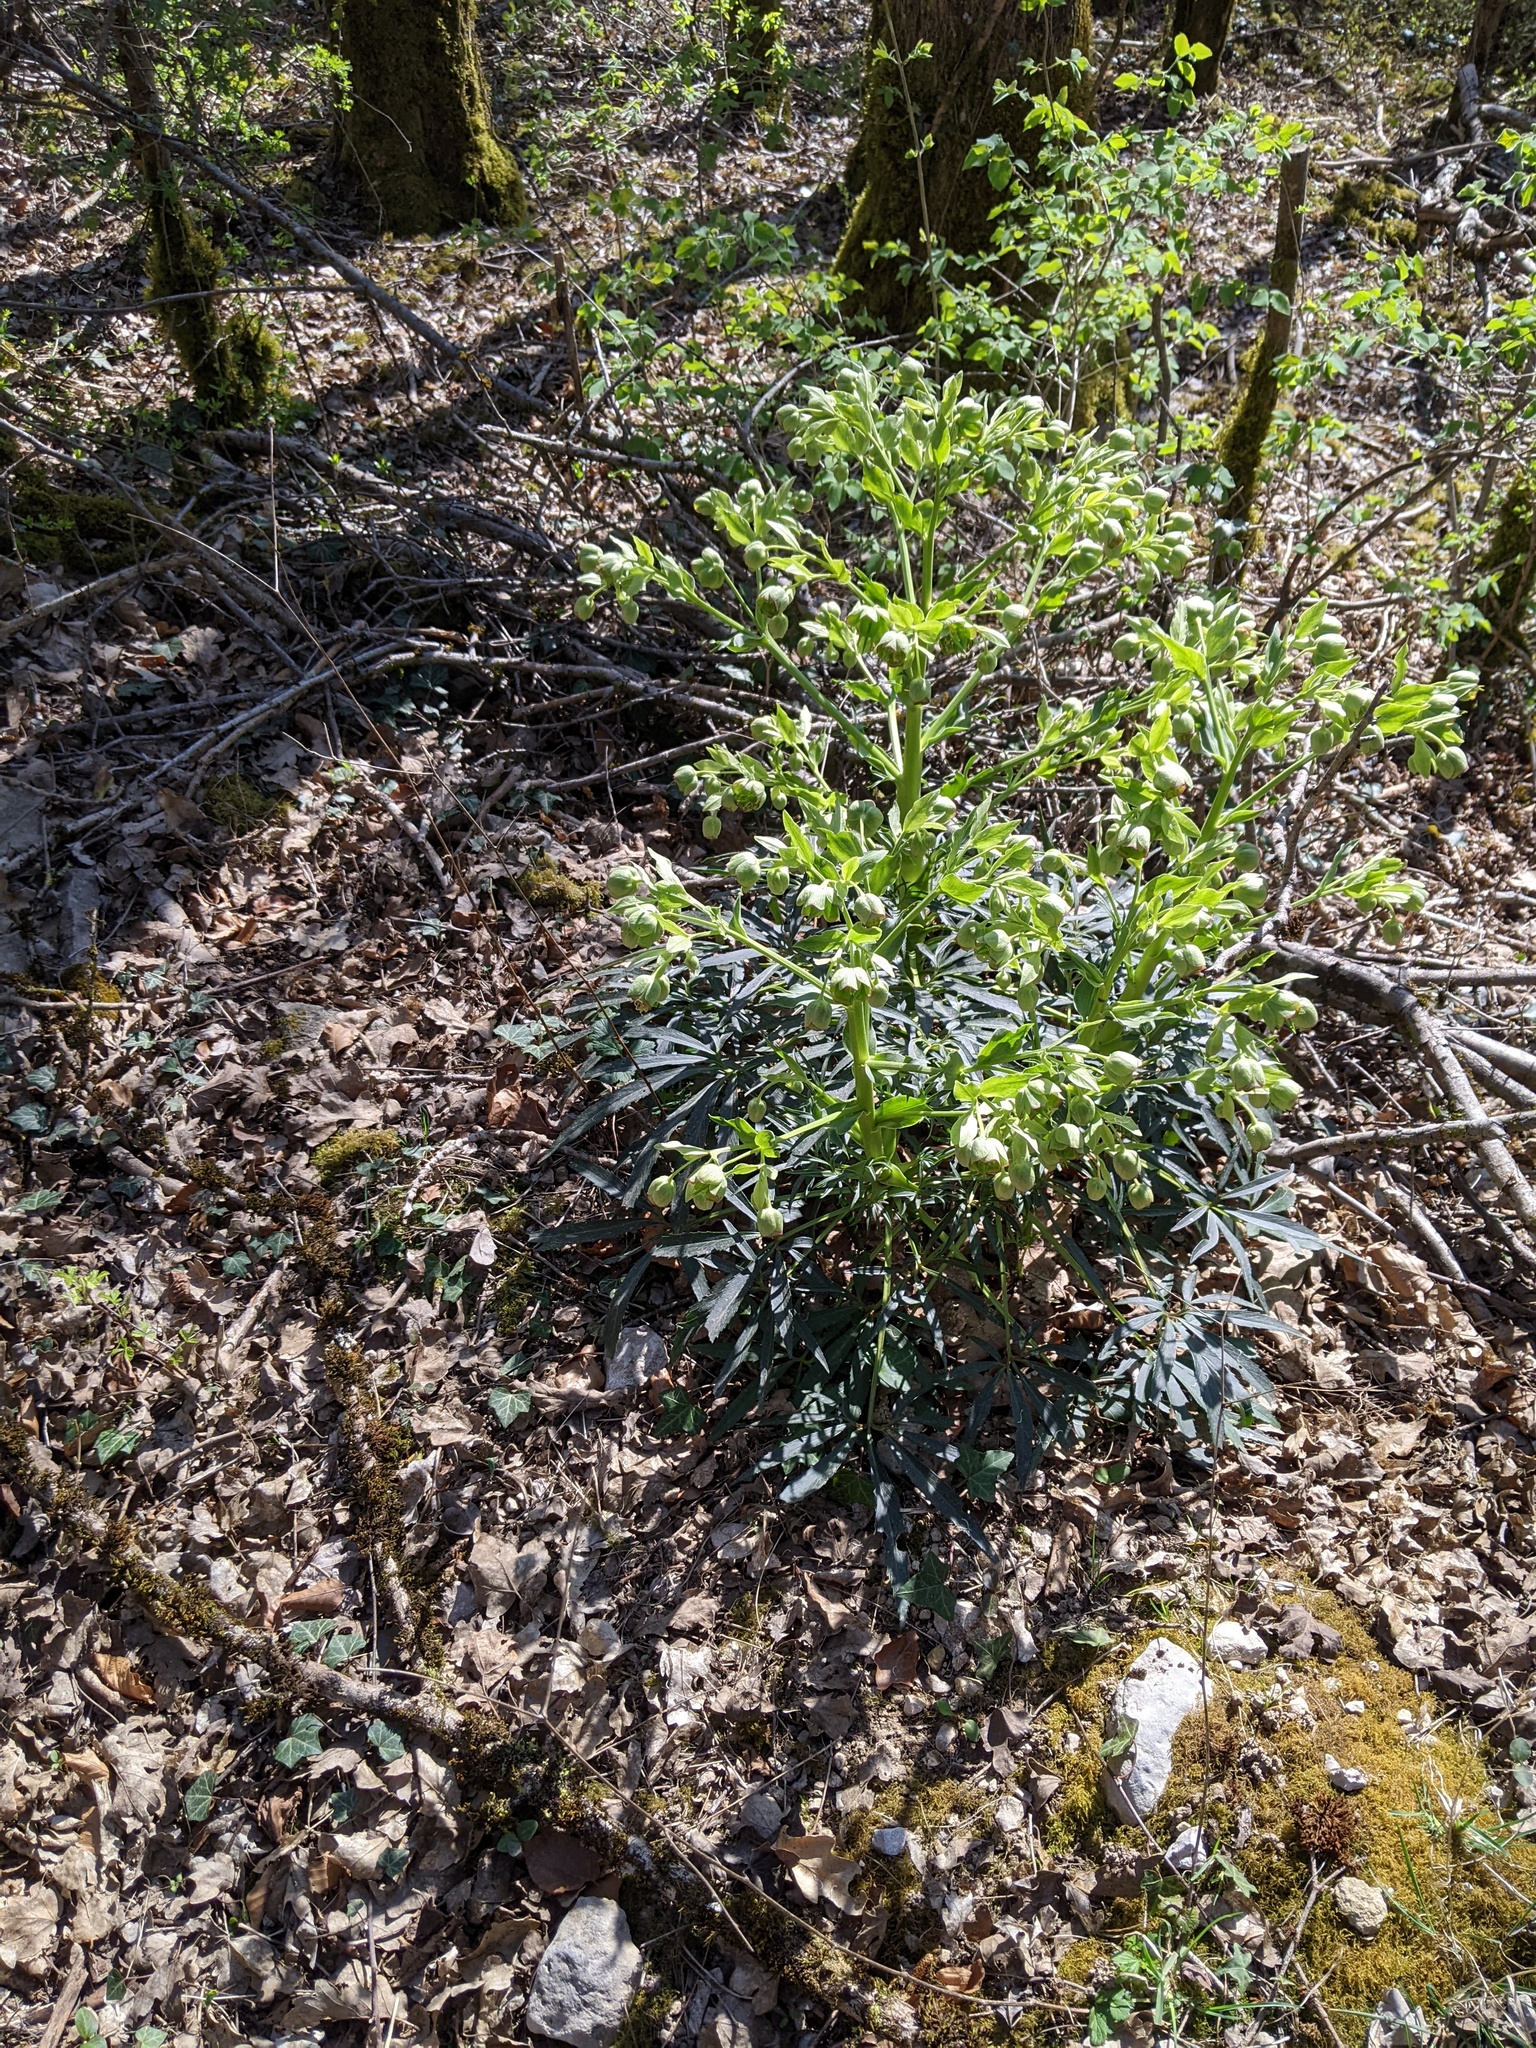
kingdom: Plantae
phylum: Tracheophyta
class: Magnoliopsida
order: Ranunculales
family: Ranunculaceae
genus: Helleborus
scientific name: Helleborus foetidus
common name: Stinking hellebore
